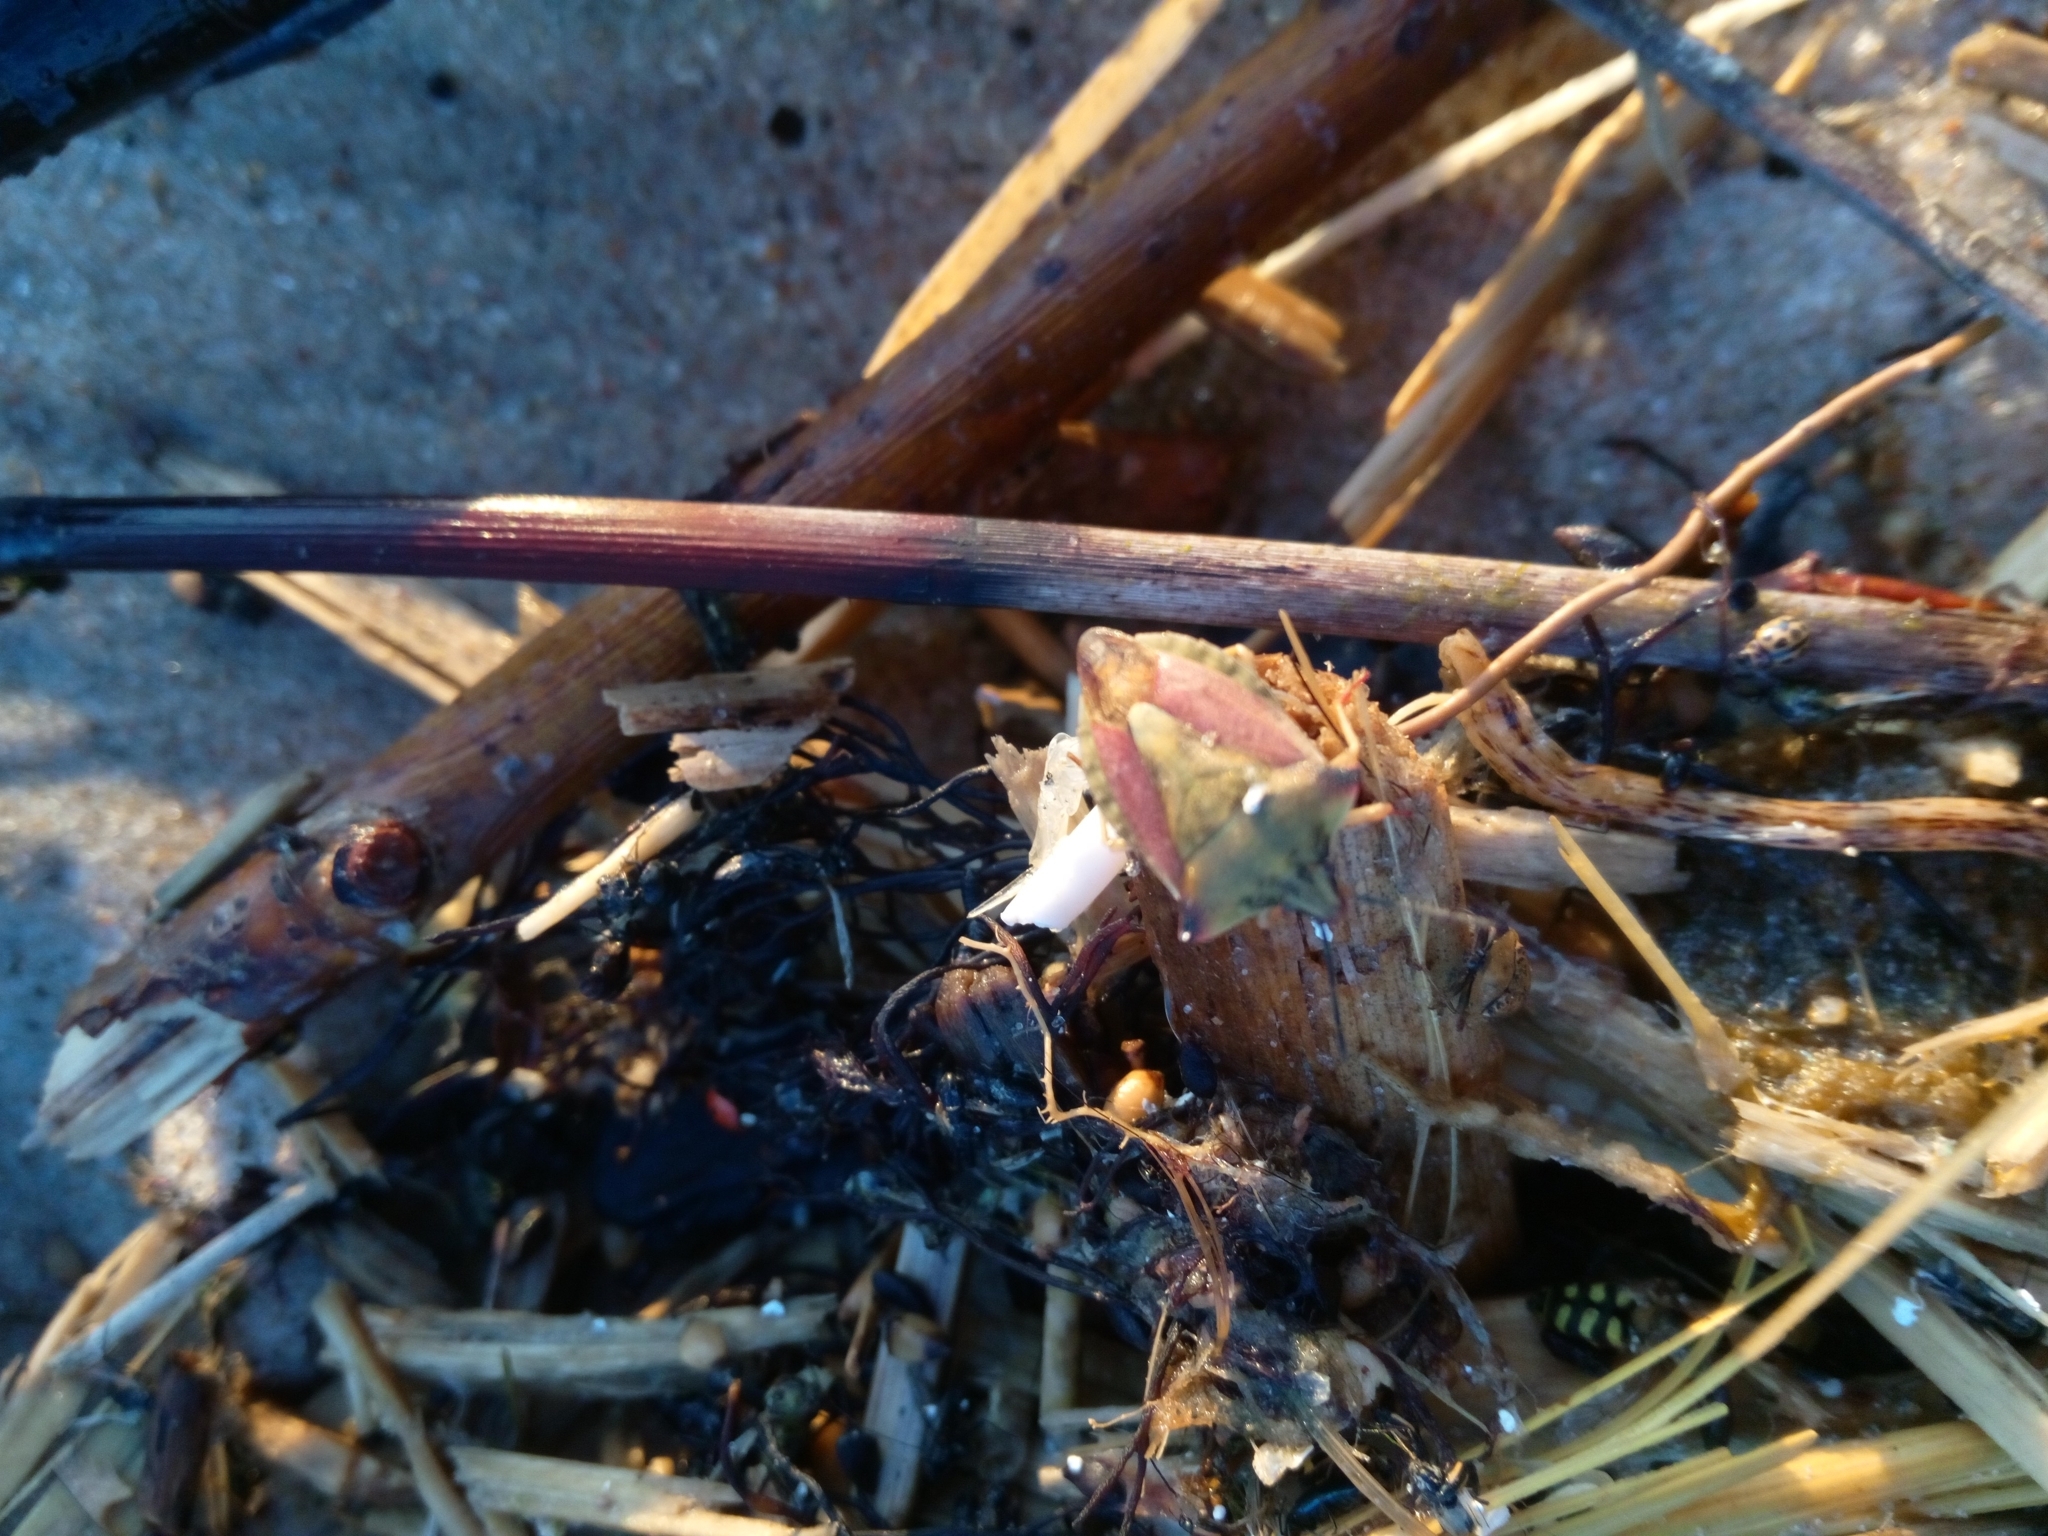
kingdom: Animalia
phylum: Arthropoda
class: Insecta
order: Hemiptera
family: Pentatomidae
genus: Carpocoris
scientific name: Carpocoris fuscispinus
